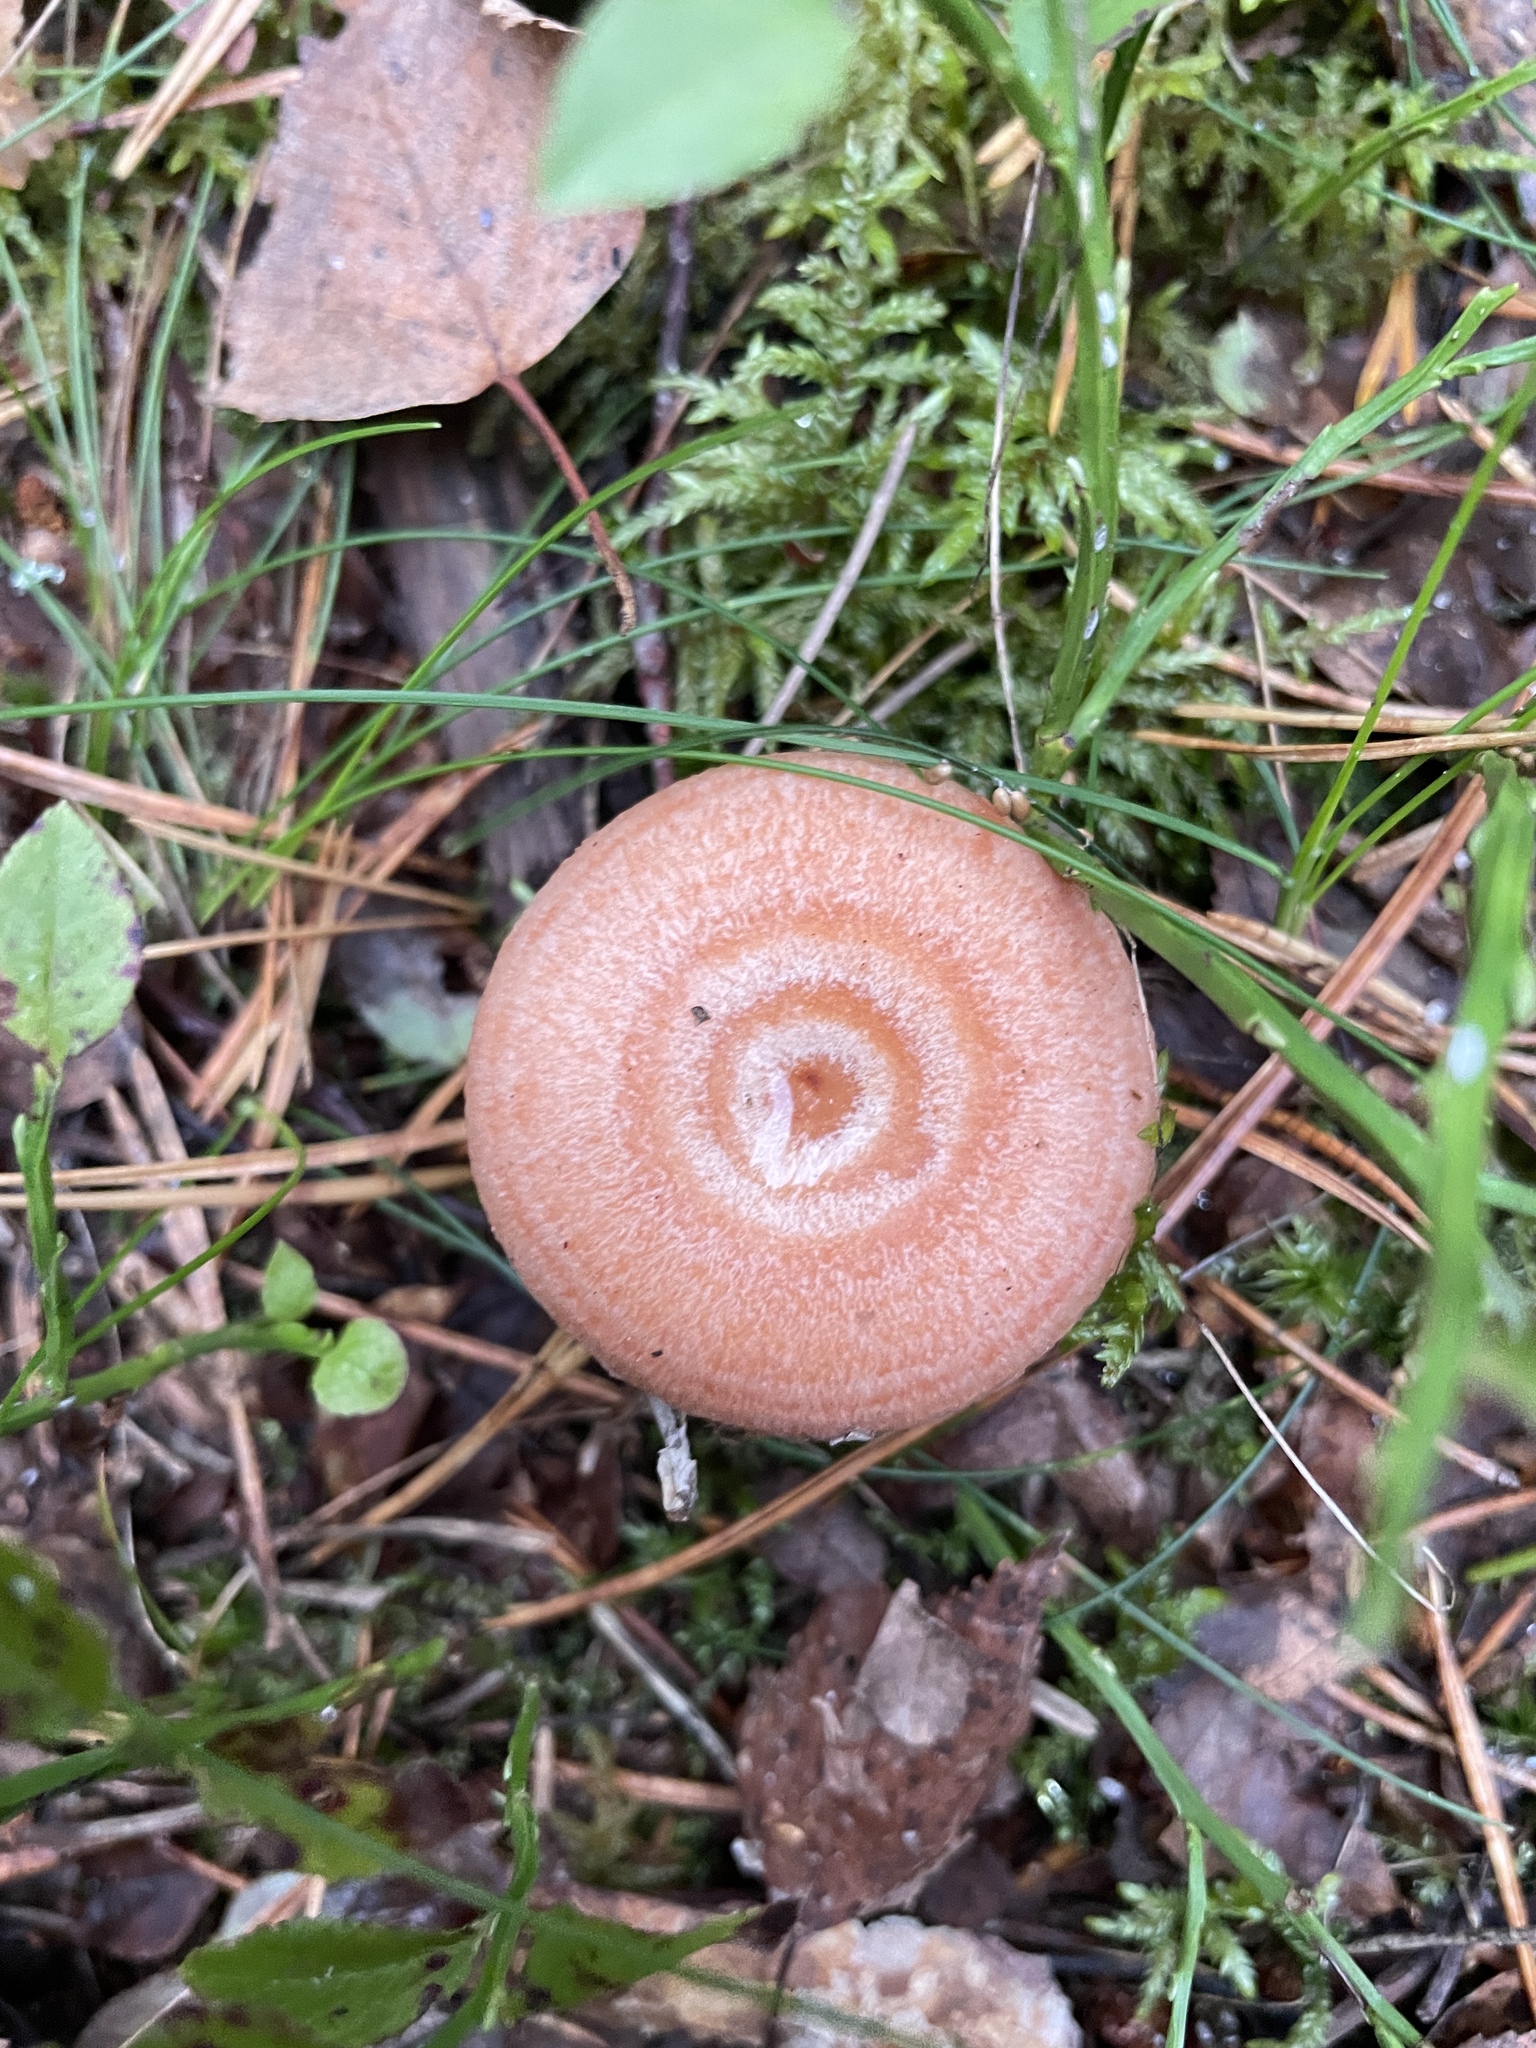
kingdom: Fungi
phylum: Basidiomycota
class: Agaricomycetes
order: Russulales
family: Russulaceae
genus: Lactarius
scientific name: Lactarius torminosus
